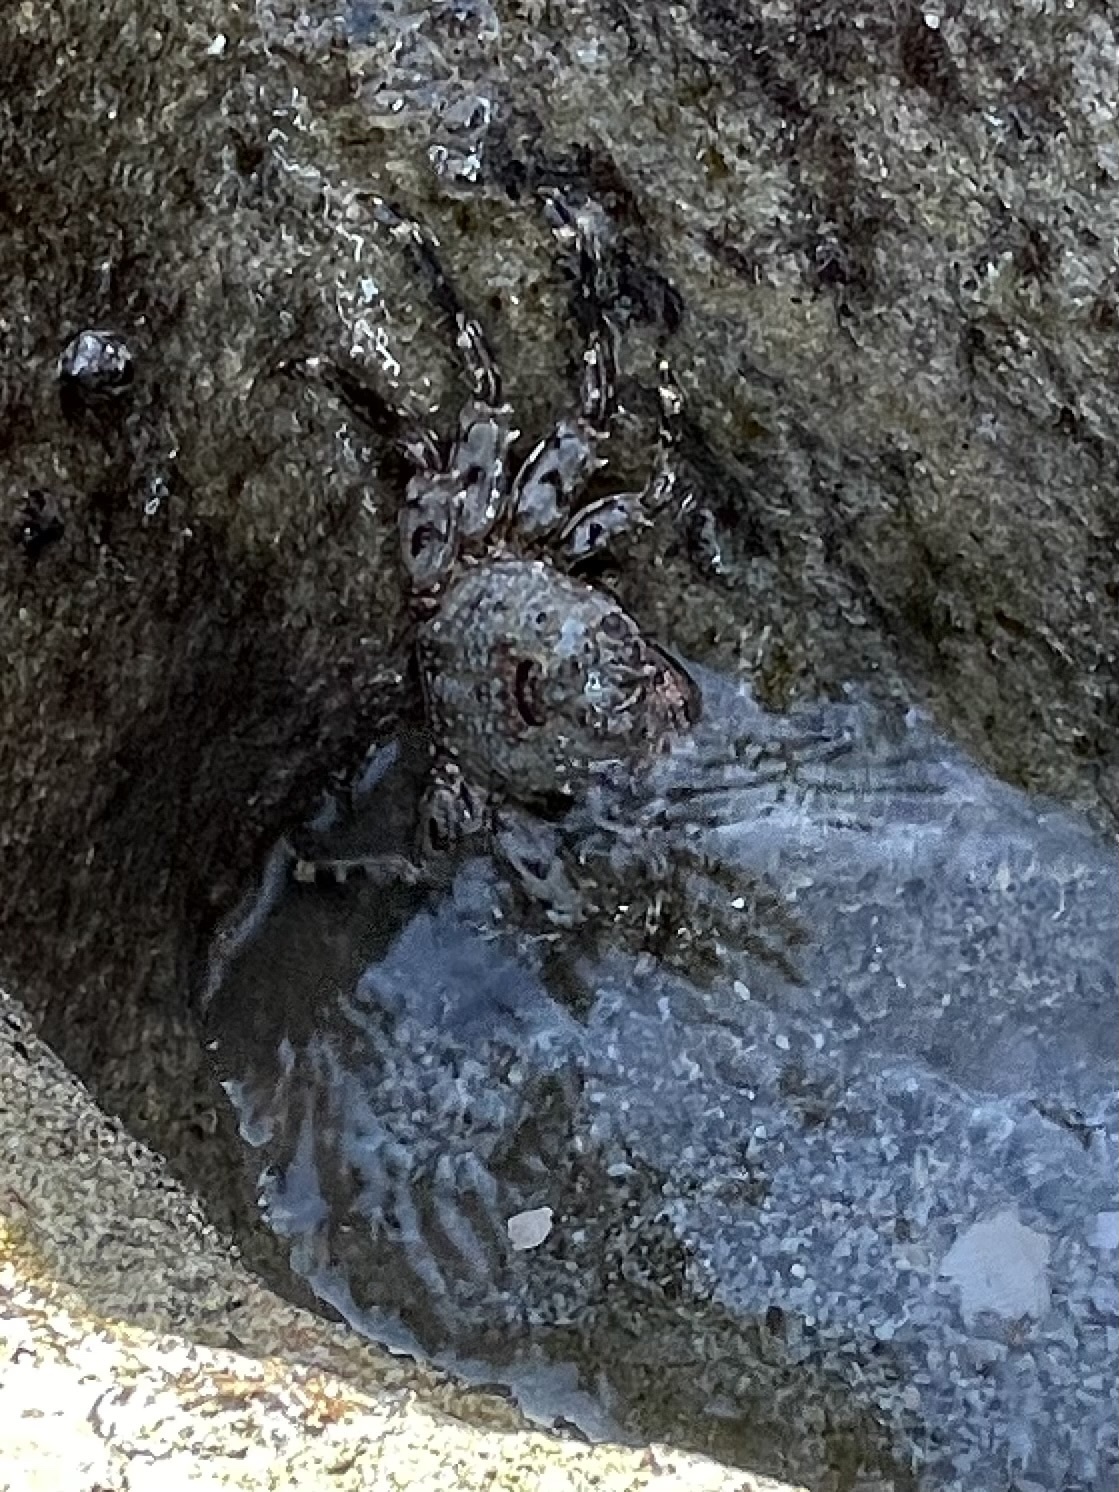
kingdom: Animalia
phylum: Arthropoda
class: Malacostraca
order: Decapoda
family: Plagusiidae
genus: Plagusia
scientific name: Plagusia depressa
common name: Flattened crab
